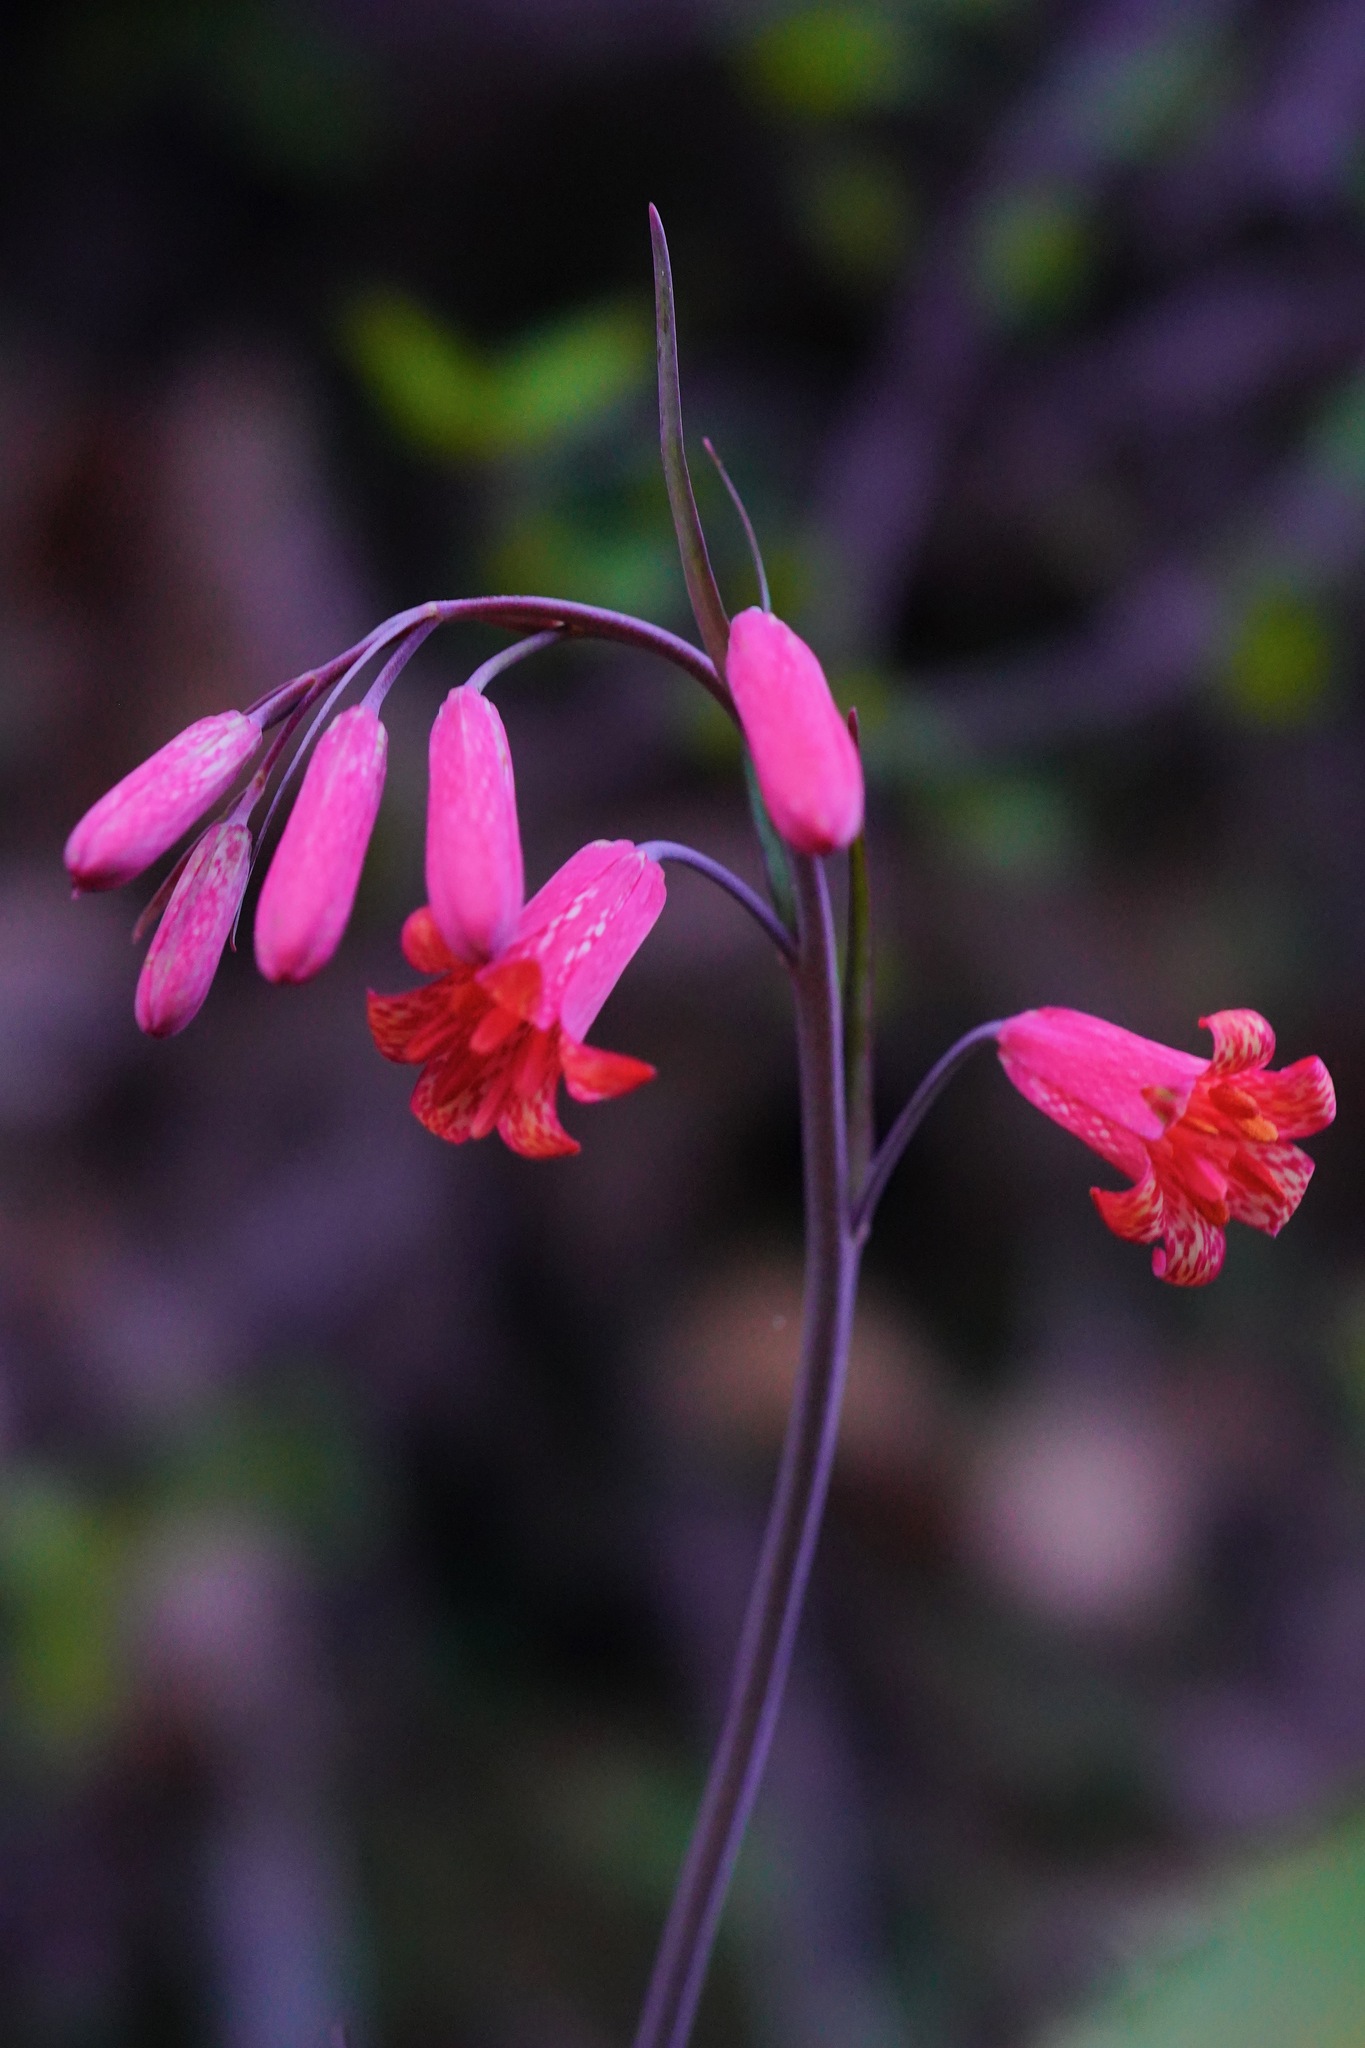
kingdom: Plantae
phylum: Tracheophyta
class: Liliopsida
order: Liliales
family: Liliaceae
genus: Fritillaria
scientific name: Fritillaria recurva
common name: Scarlet fritillary
